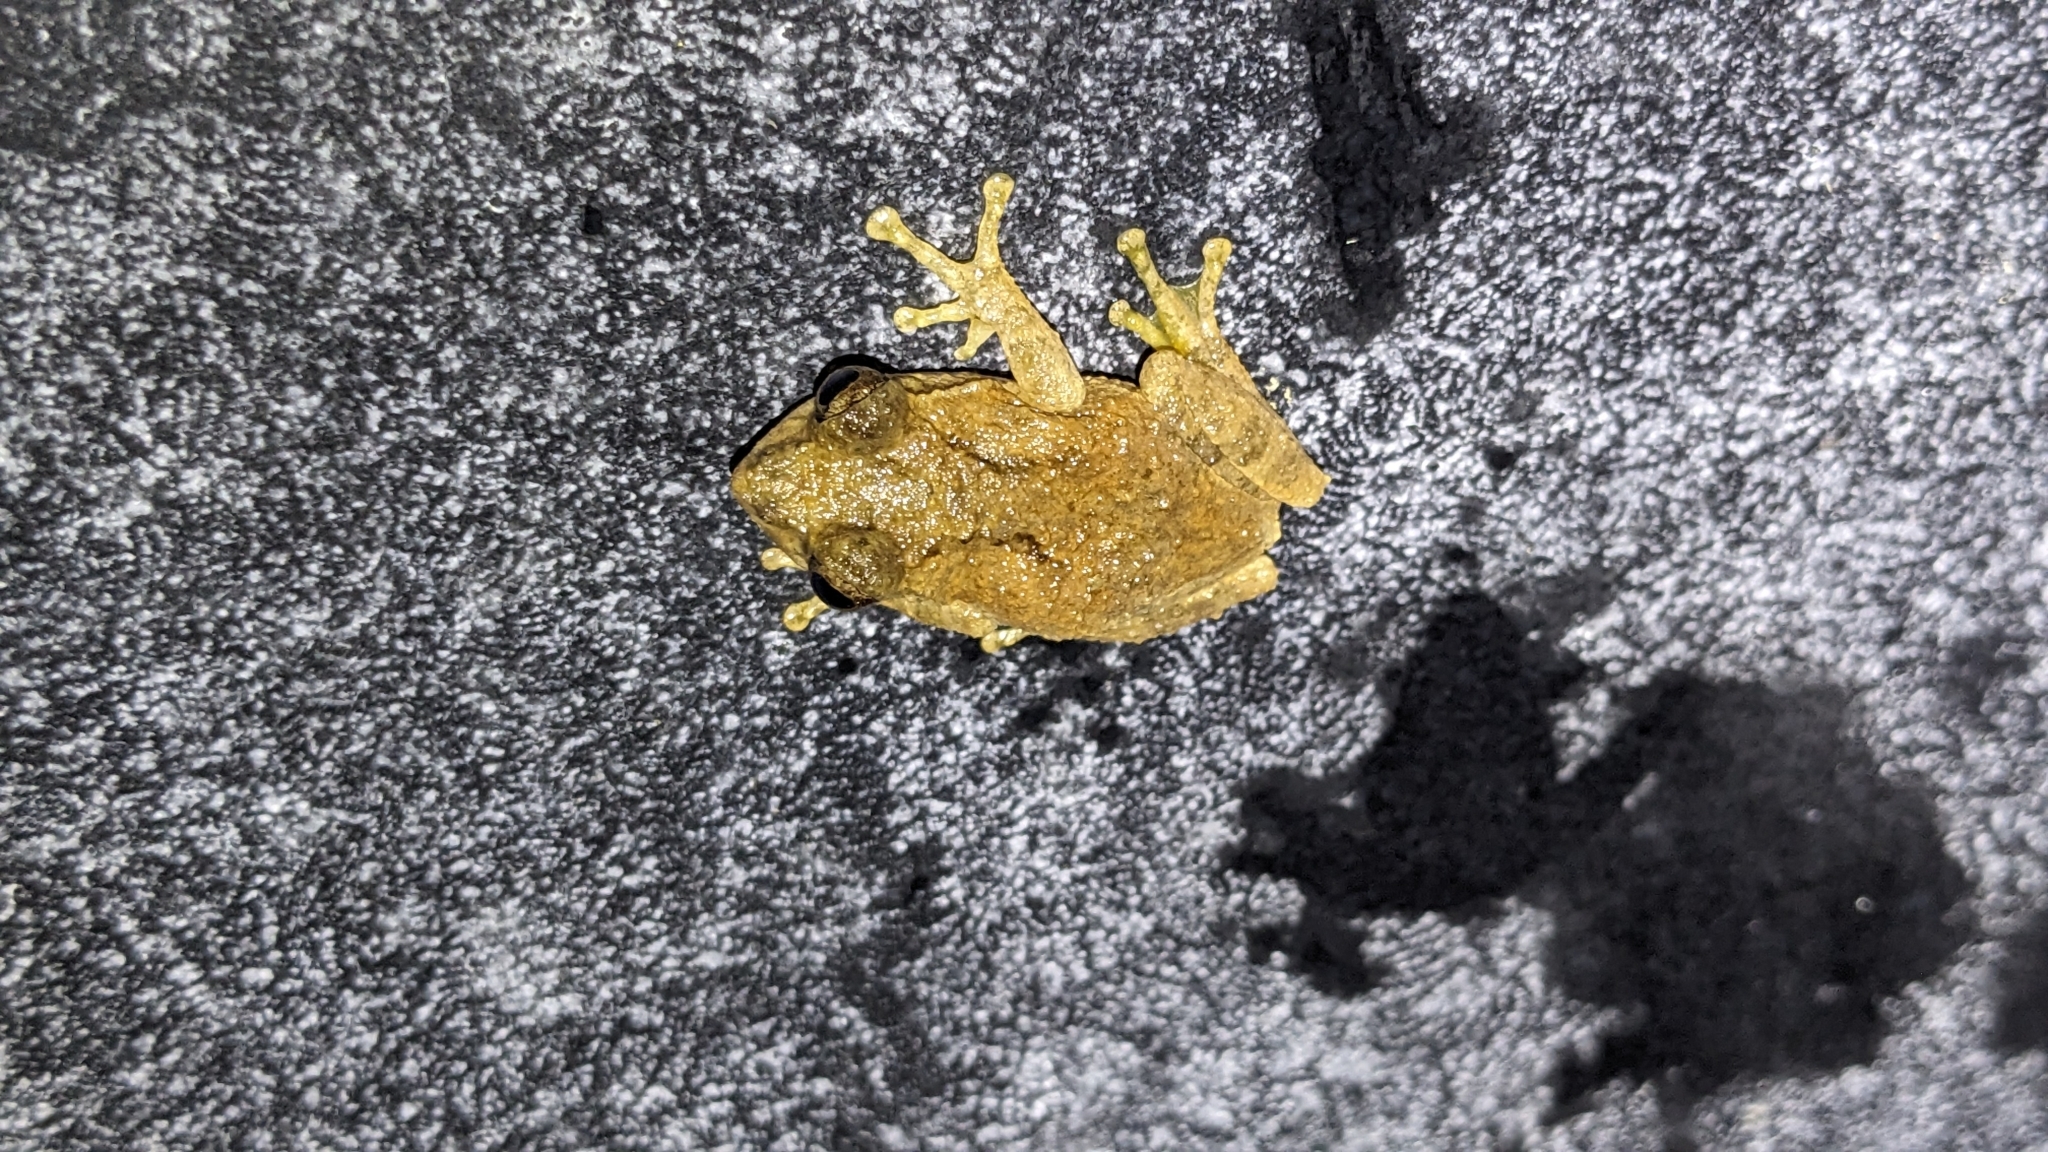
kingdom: Animalia
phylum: Chordata
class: Amphibia
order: Anura
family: Rhacophoridae
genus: Kurixalus
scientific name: Kurixalus idiootocus
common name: Temple treefrog
